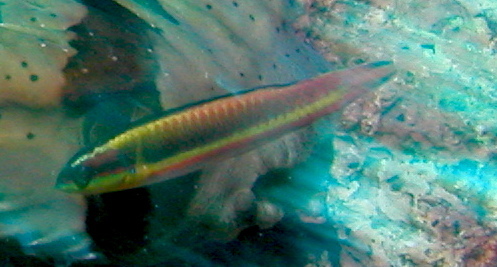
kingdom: Animalia
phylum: Chordata
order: Perciformes
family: Labridae
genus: Thalassoma
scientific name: Thalassoma lucasanum
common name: Cortez rainbow wrasse
